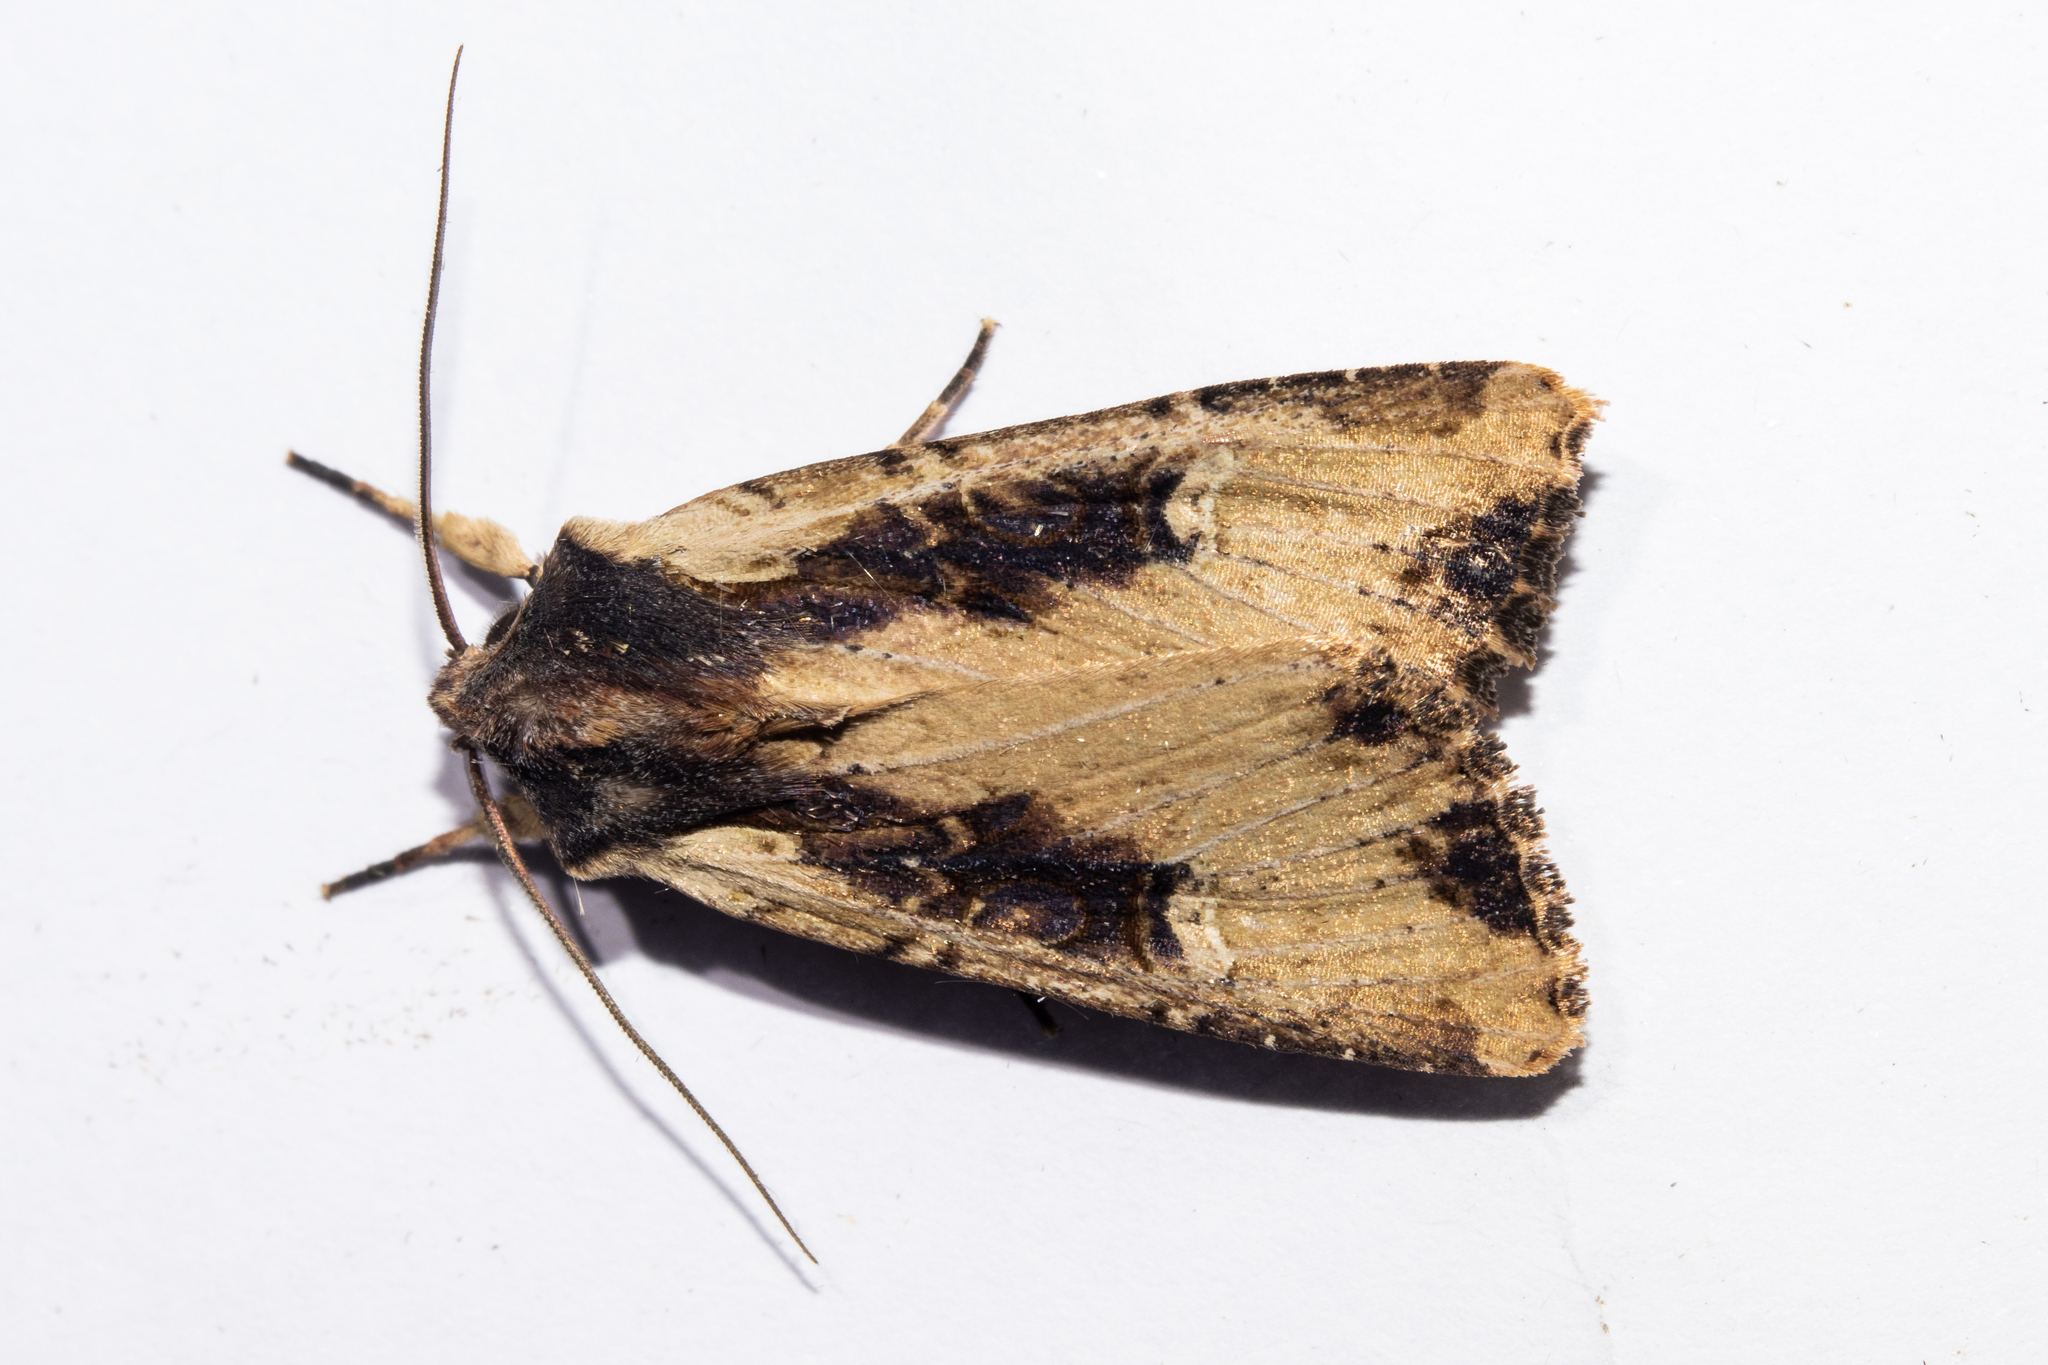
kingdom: Animalia
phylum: Arthropoda
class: Insecta
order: Lepidoptera
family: Noctuidae
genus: Ichneutica
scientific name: Ichneutica omoplaca
